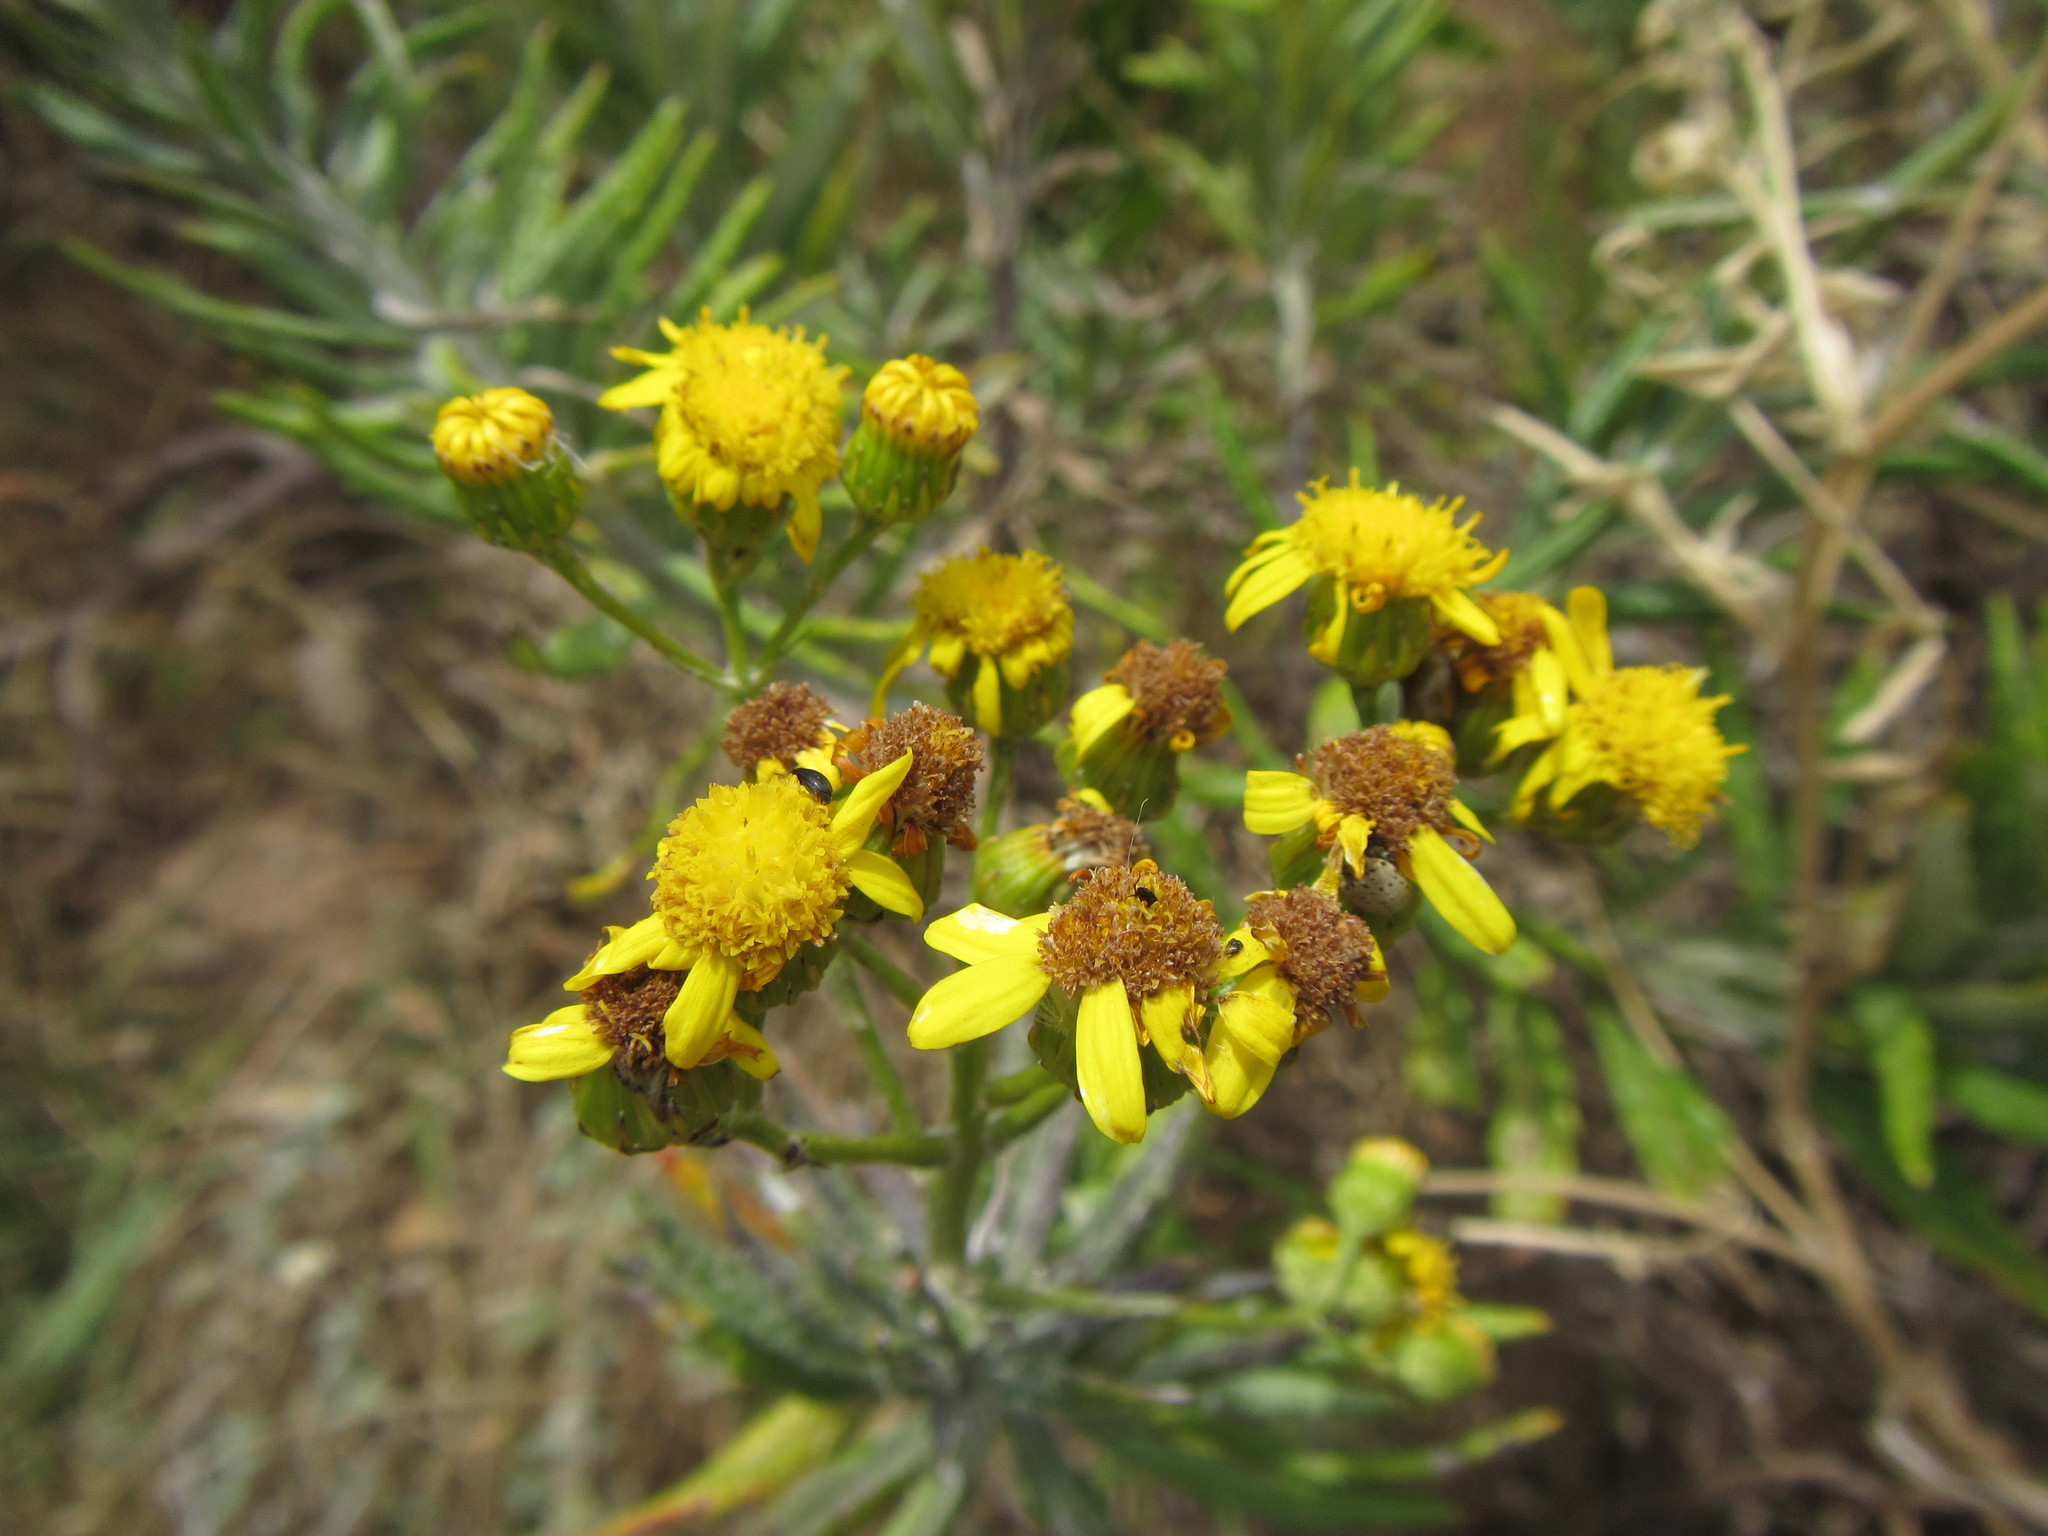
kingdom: Plantae
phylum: Tracheophyta
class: Magnoliopsida
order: Asterales
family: Asteraceae
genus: Senecio
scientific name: Senecio pterophorus
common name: Shoddy ragwort
